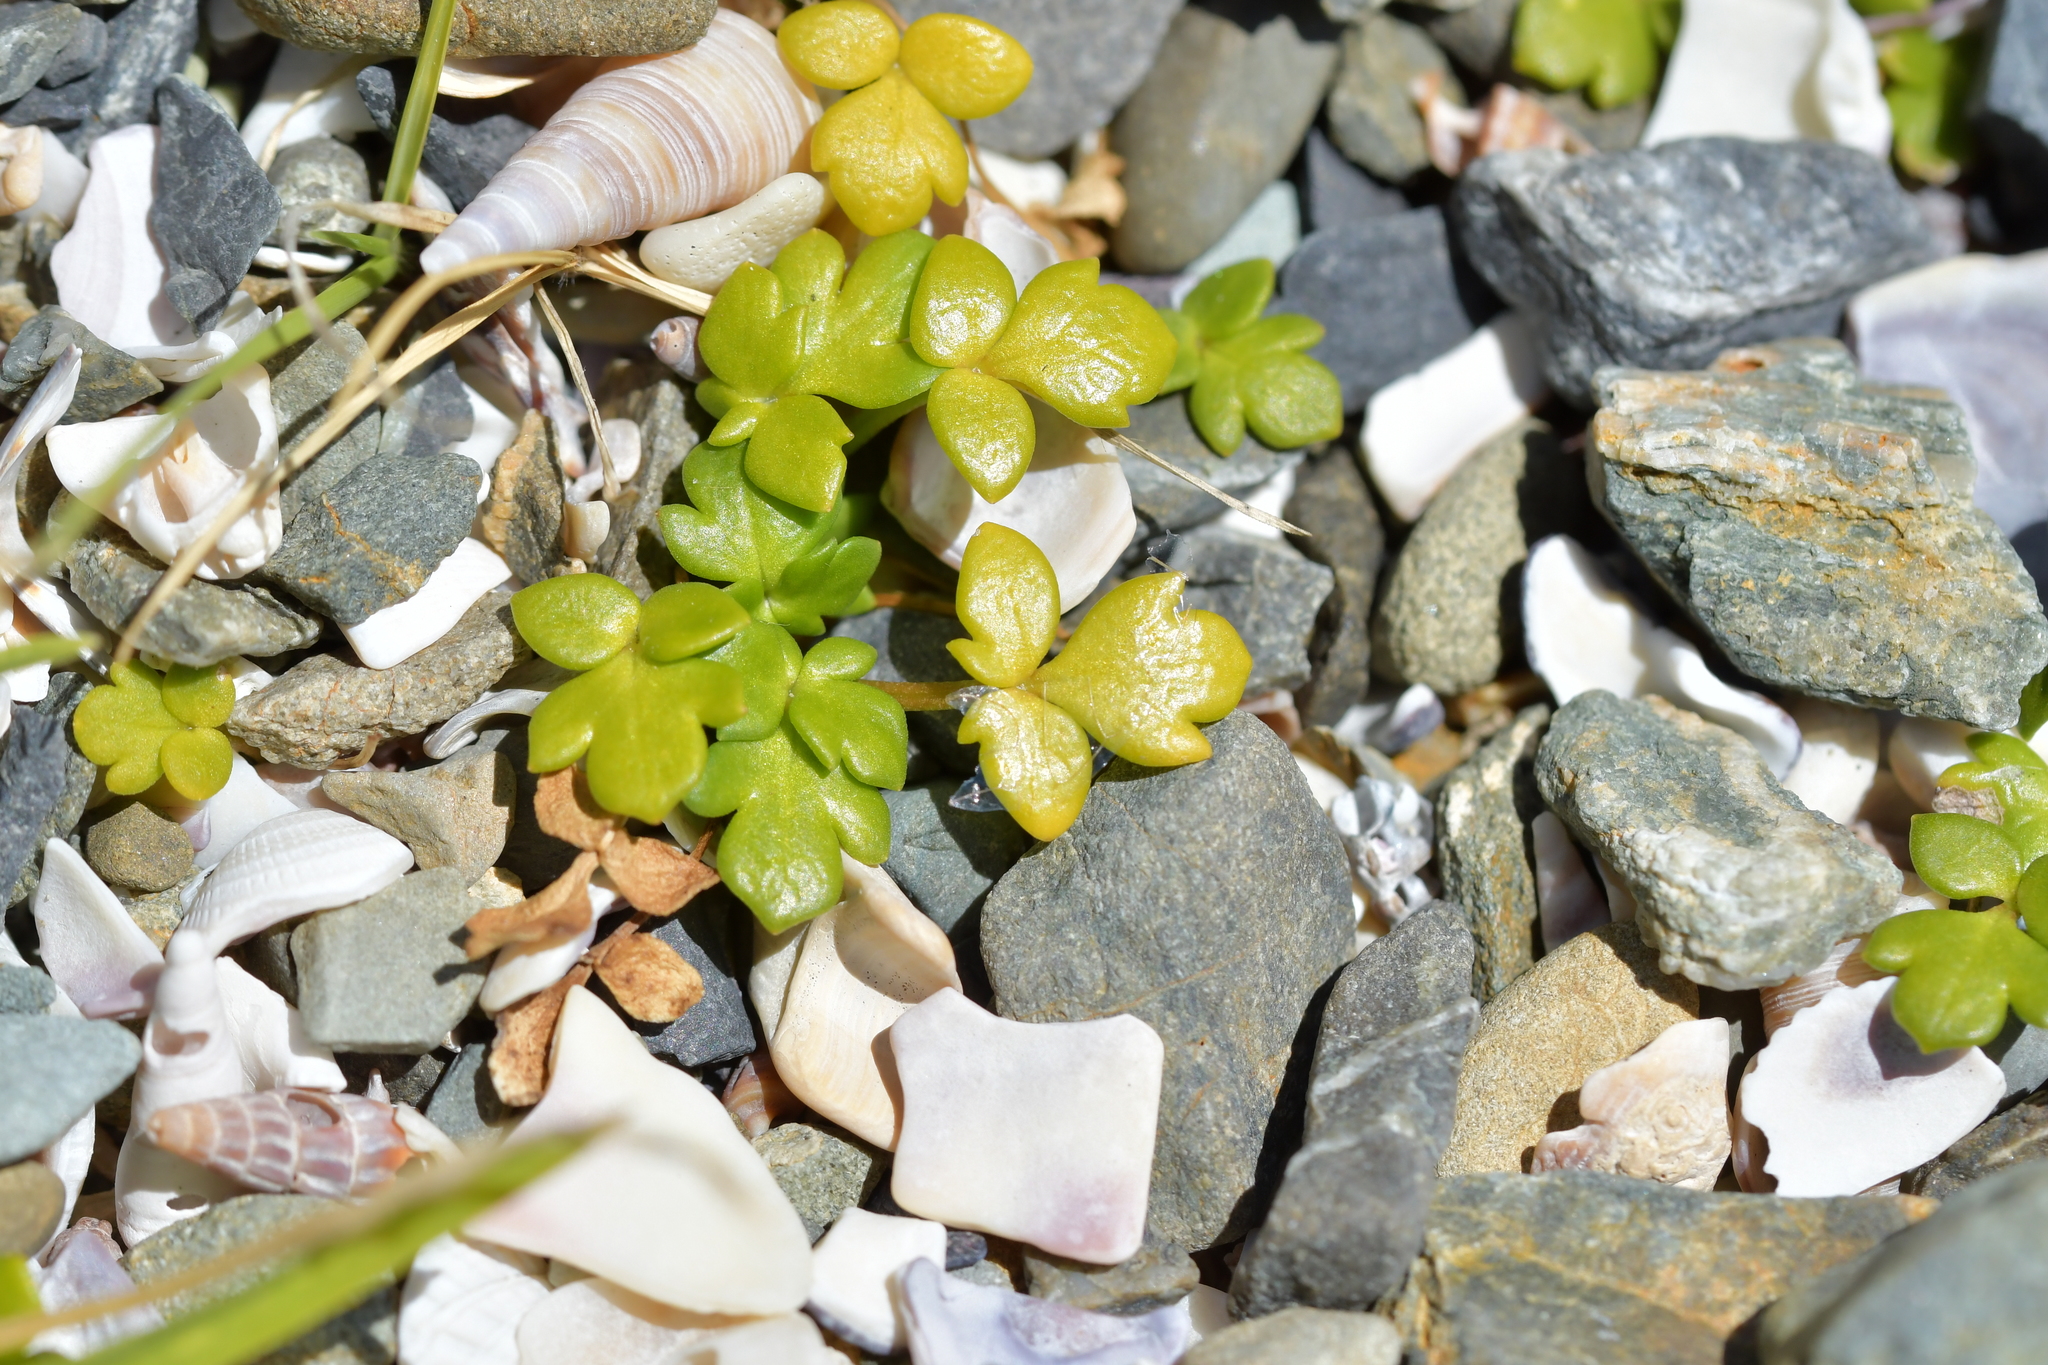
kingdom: Plantae
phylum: Tracheophyta
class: Magnoliopsida
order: Ranunculales
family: Ranunculaceae
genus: Ranunculus
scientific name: Ranunculus acaulis
